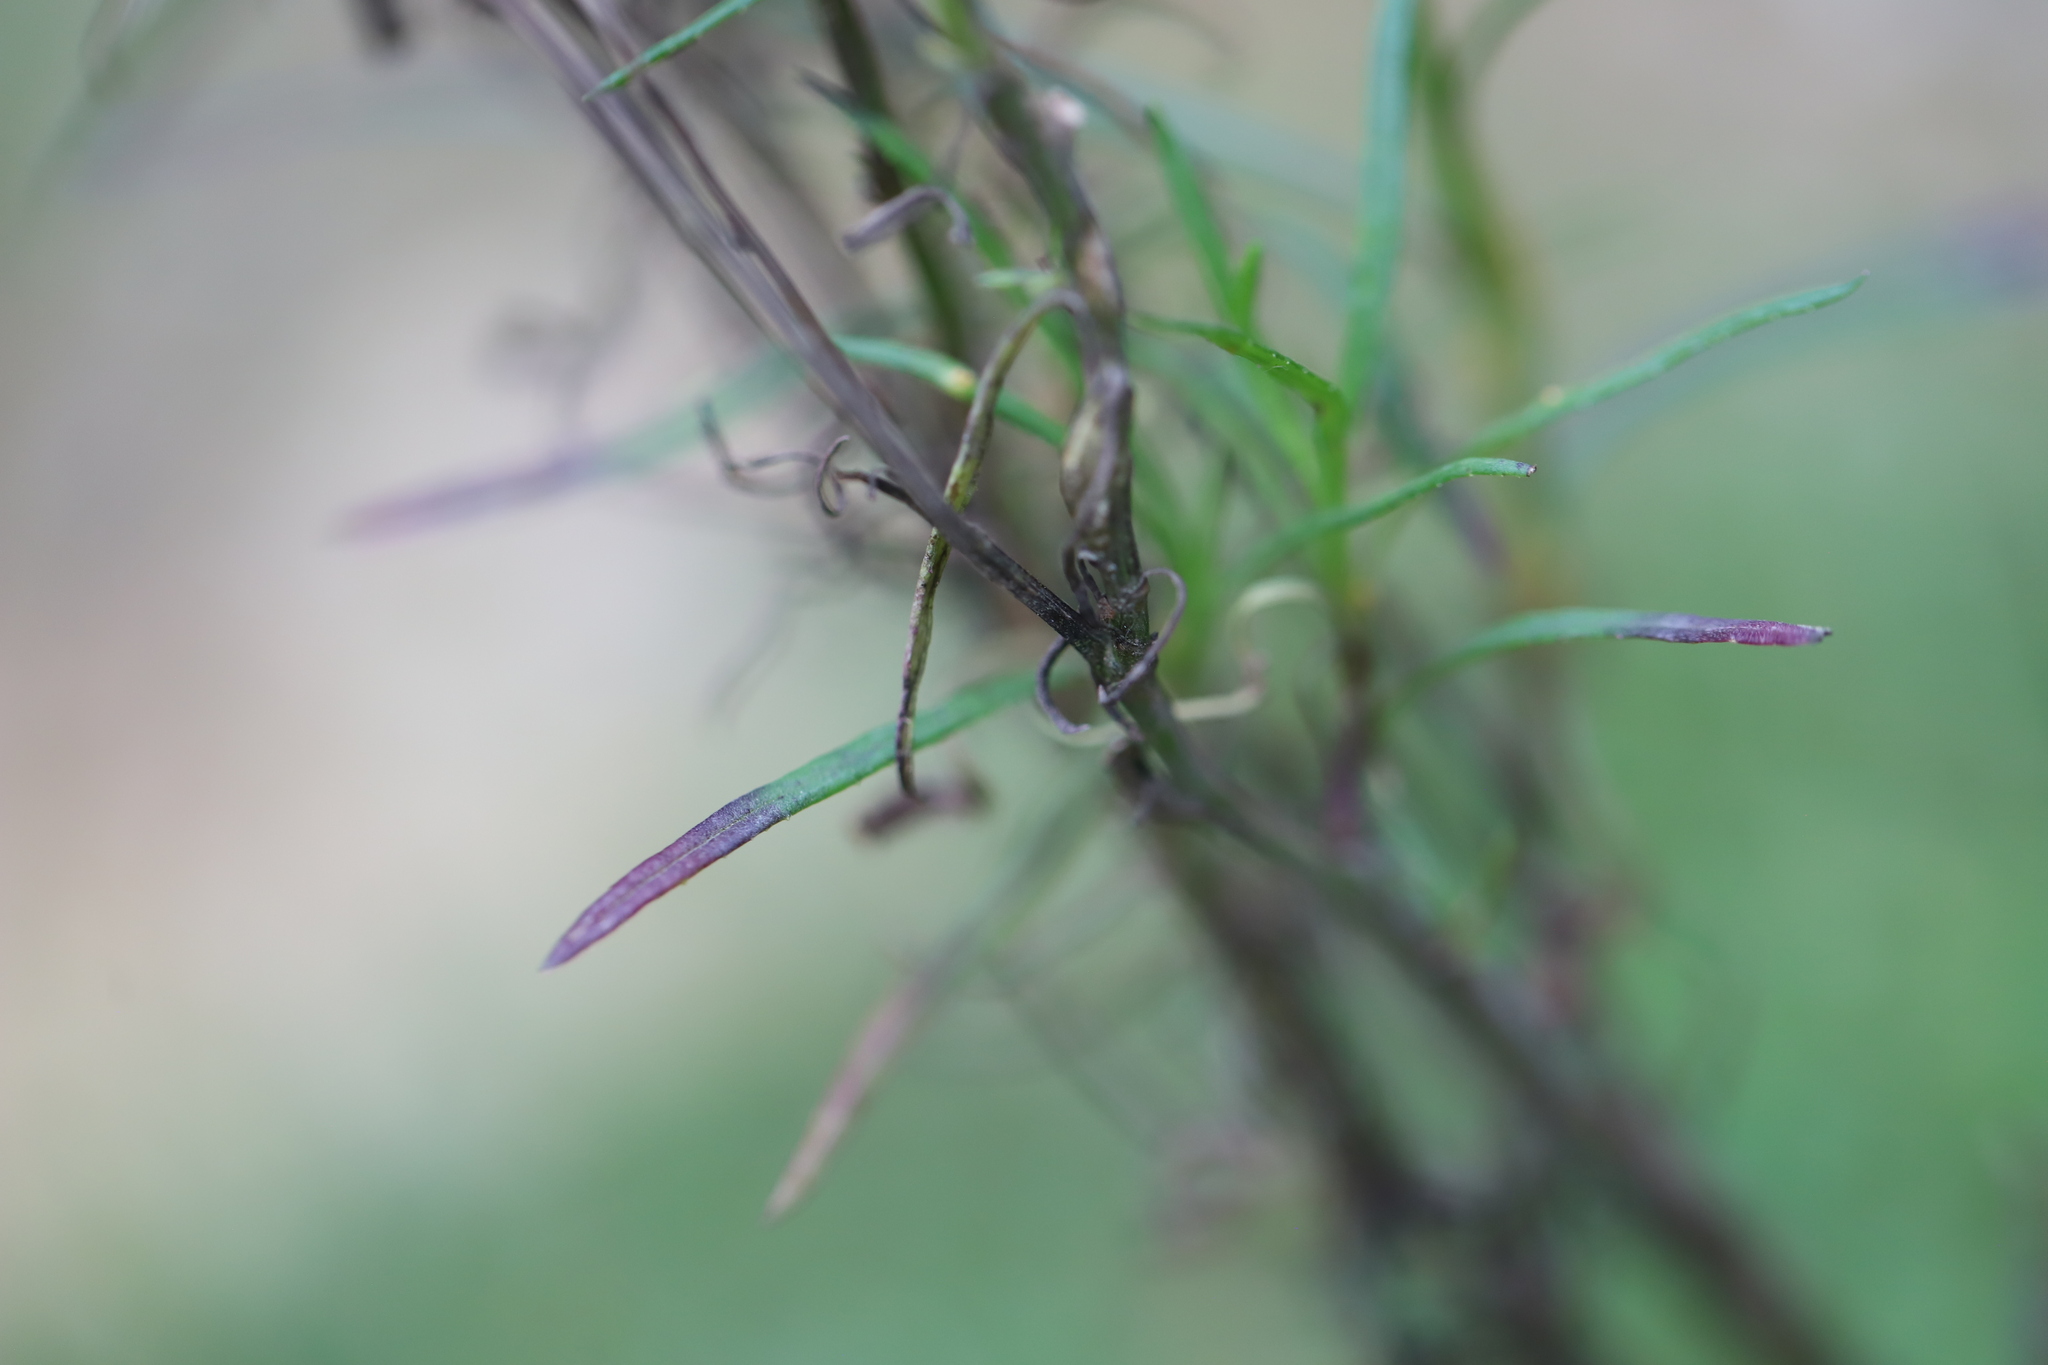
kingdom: Plantae
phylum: Tracheophyta
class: Magnoliopsida
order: Asterales
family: Asteraceae
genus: Senecio
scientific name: Senecio inaequidens
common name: Narrow-leaved ragwort
